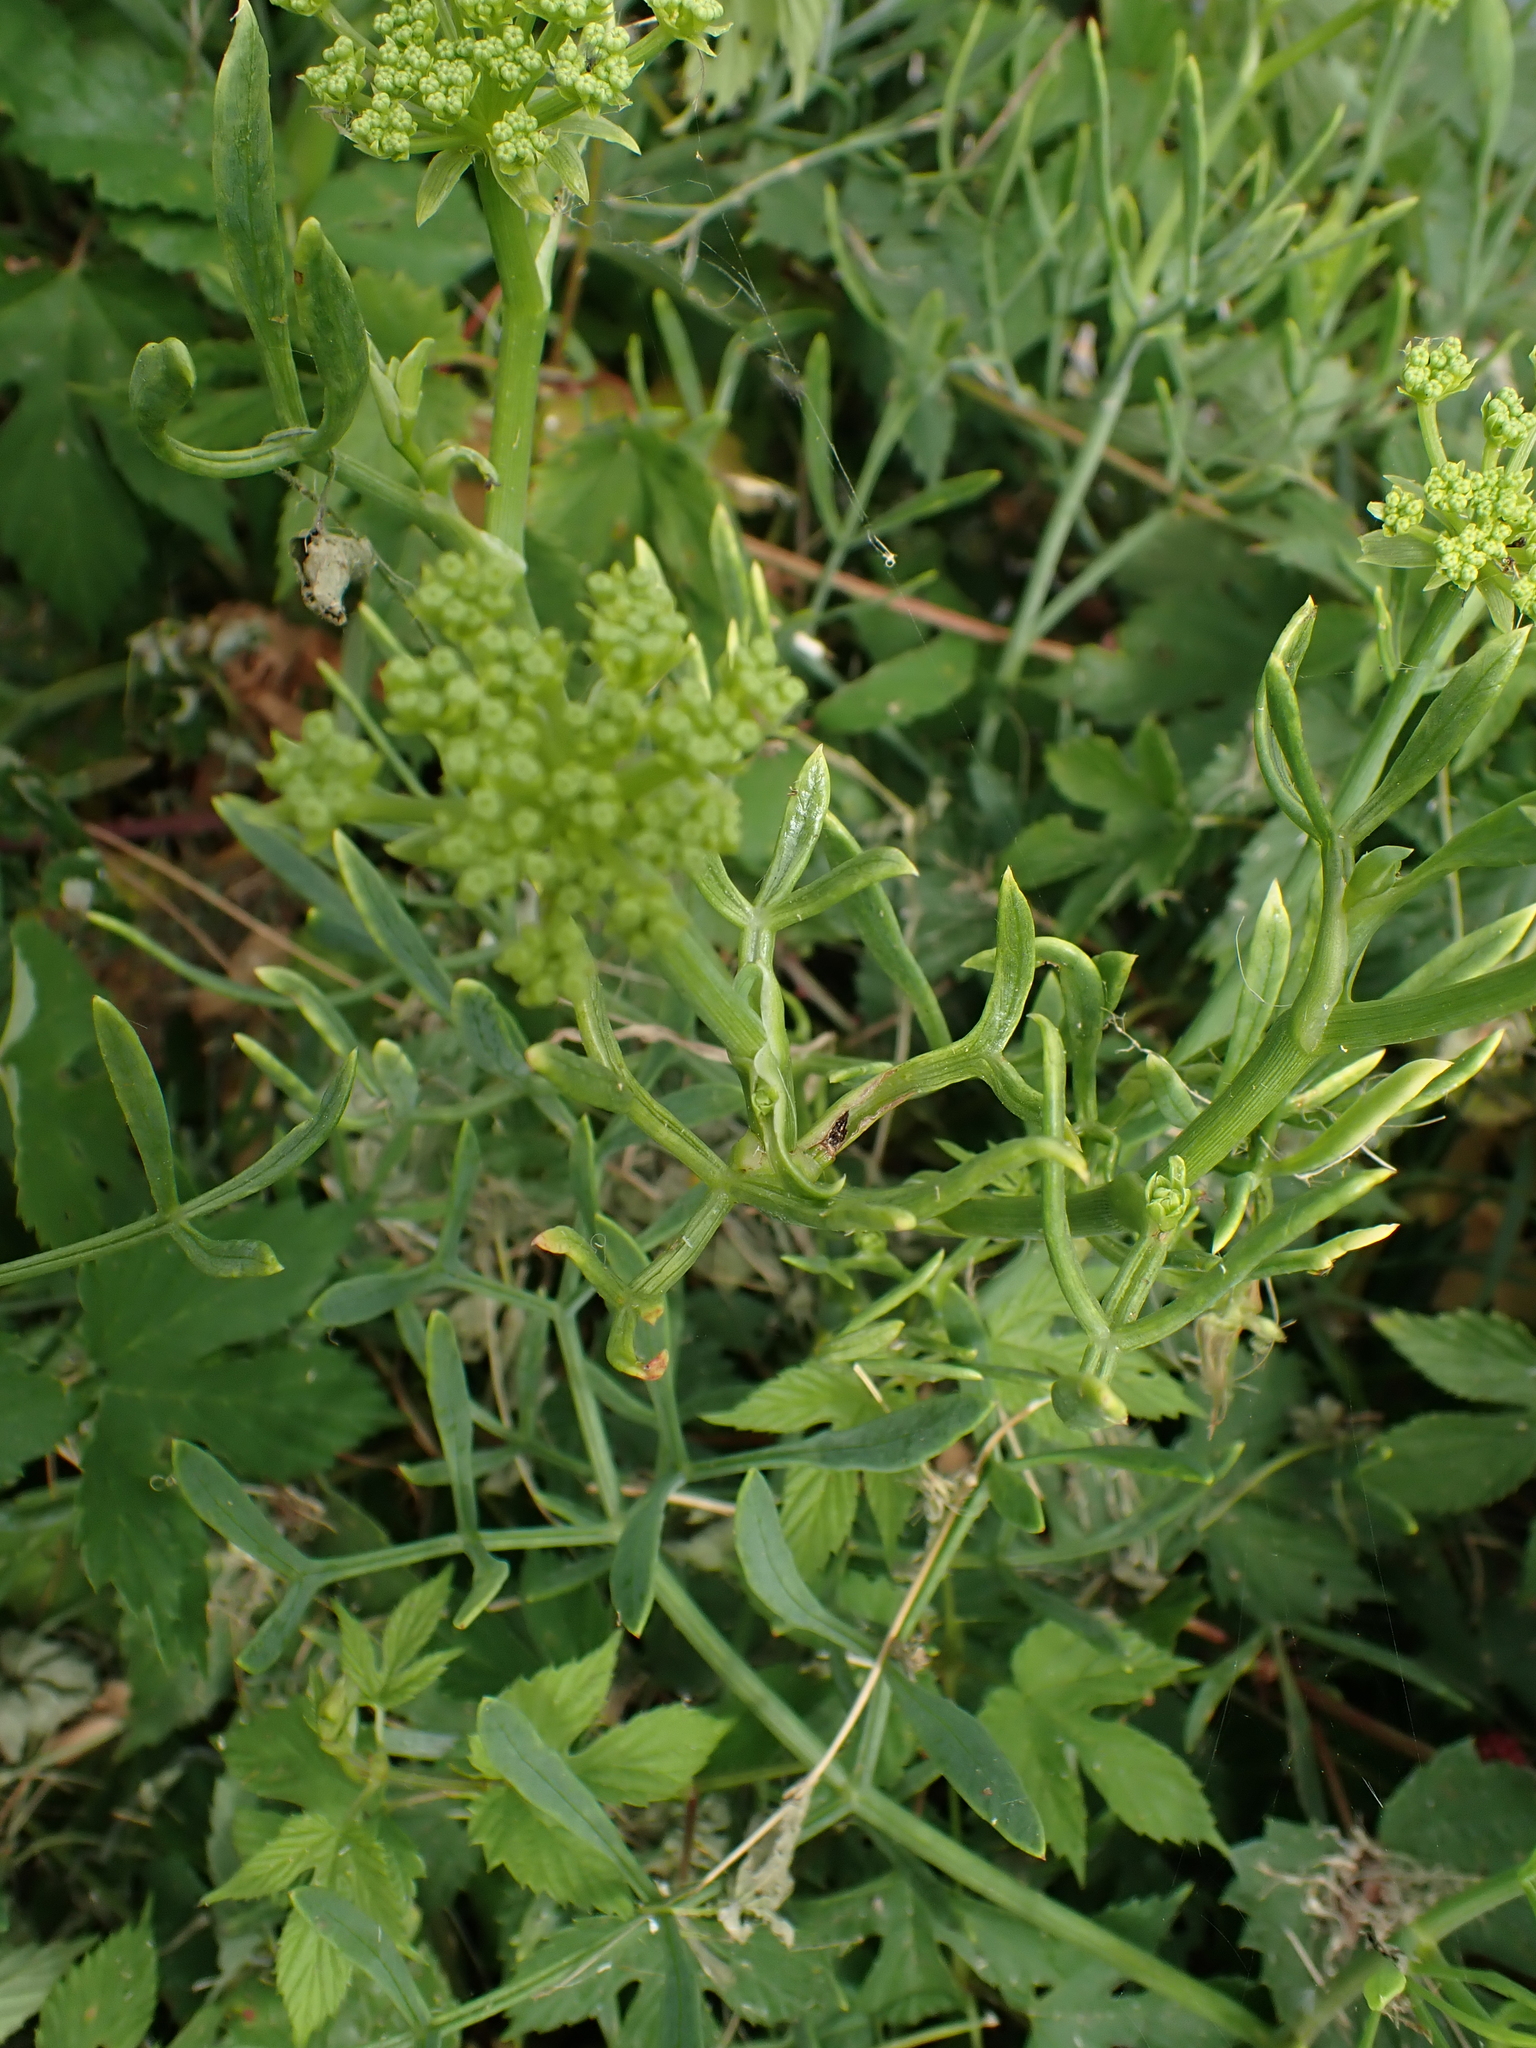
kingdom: Plantae
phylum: Tracheophyta
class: Magnoliopsida
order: Apiales
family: Apiaceae
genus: Crithmum
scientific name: Crithmum maritimum
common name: Rock samphire
